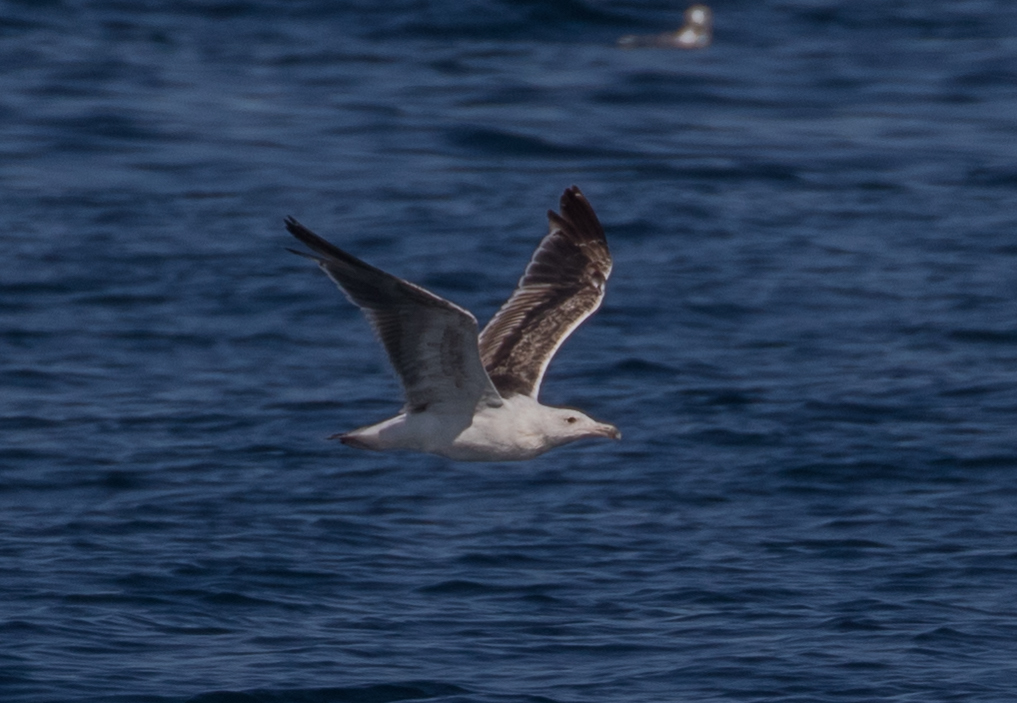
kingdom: Animalia
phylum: Chordata
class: Aves
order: Charadriiformes
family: Laridae
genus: Larus
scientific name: Larus marinus
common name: Great black-backed gull
